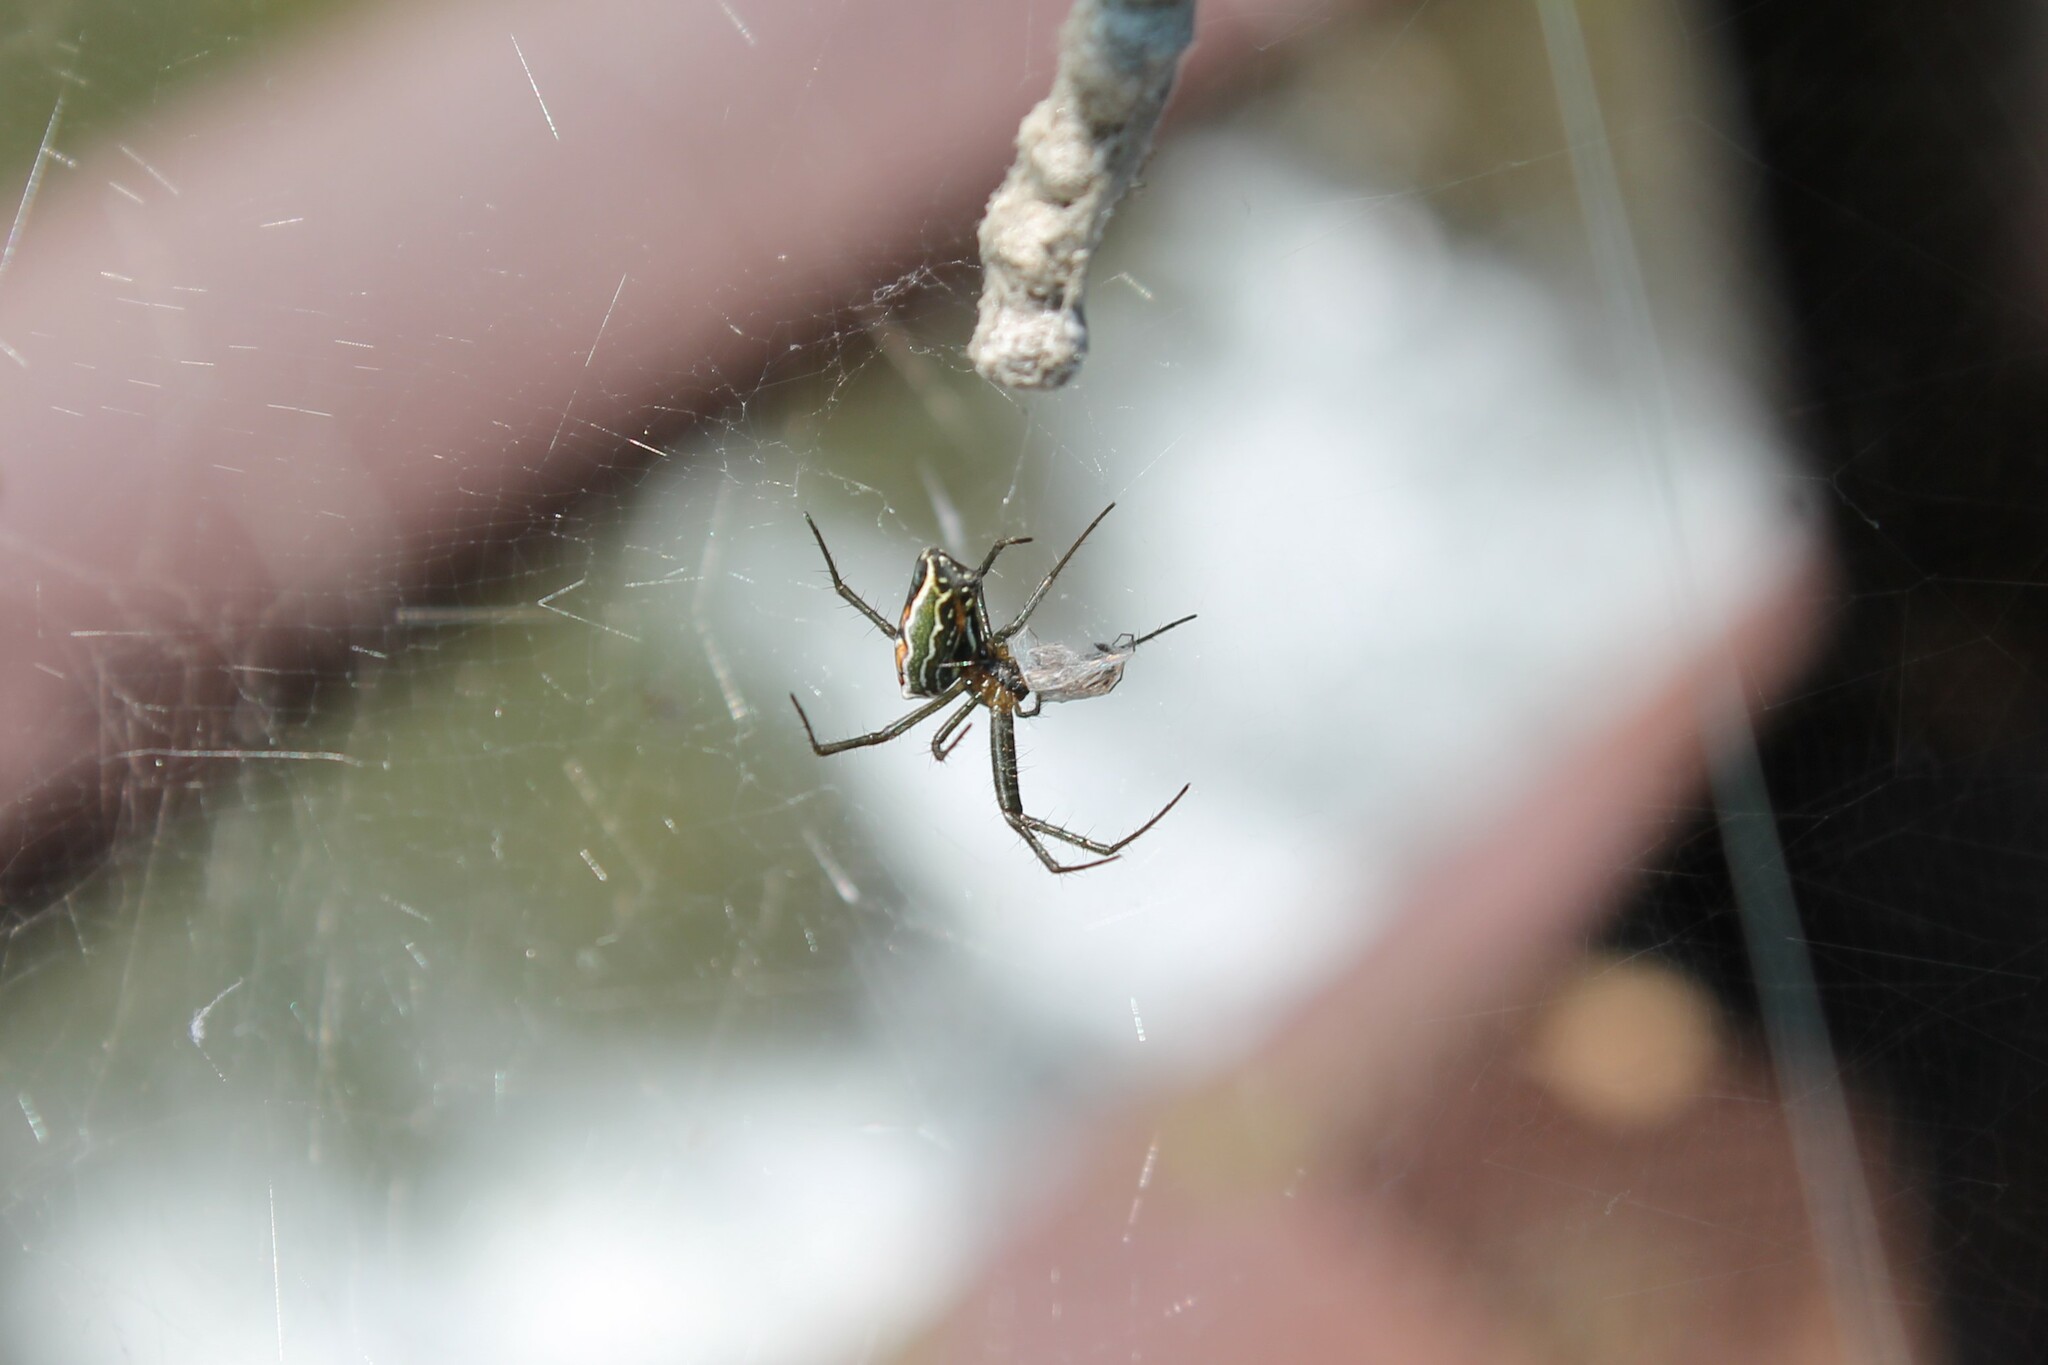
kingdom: Animalia
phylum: Arthropoda
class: Arachnida
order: Araneae
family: Araneidae
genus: Mecynogea
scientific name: Mecynogea lemniscata
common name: Orb weavers
